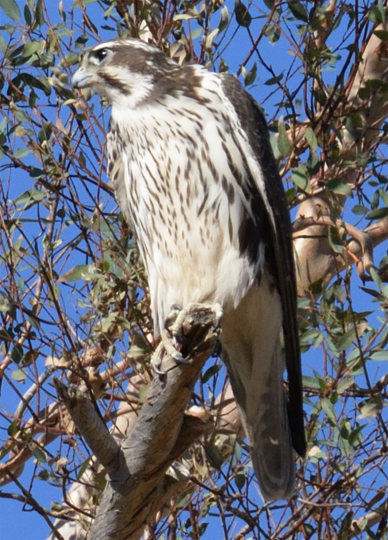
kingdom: Animalia
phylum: Chordata
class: Aves
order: Falconiformes
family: Falconidae
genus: Falco
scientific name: Falco mexicanus
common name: Prairie falcon
